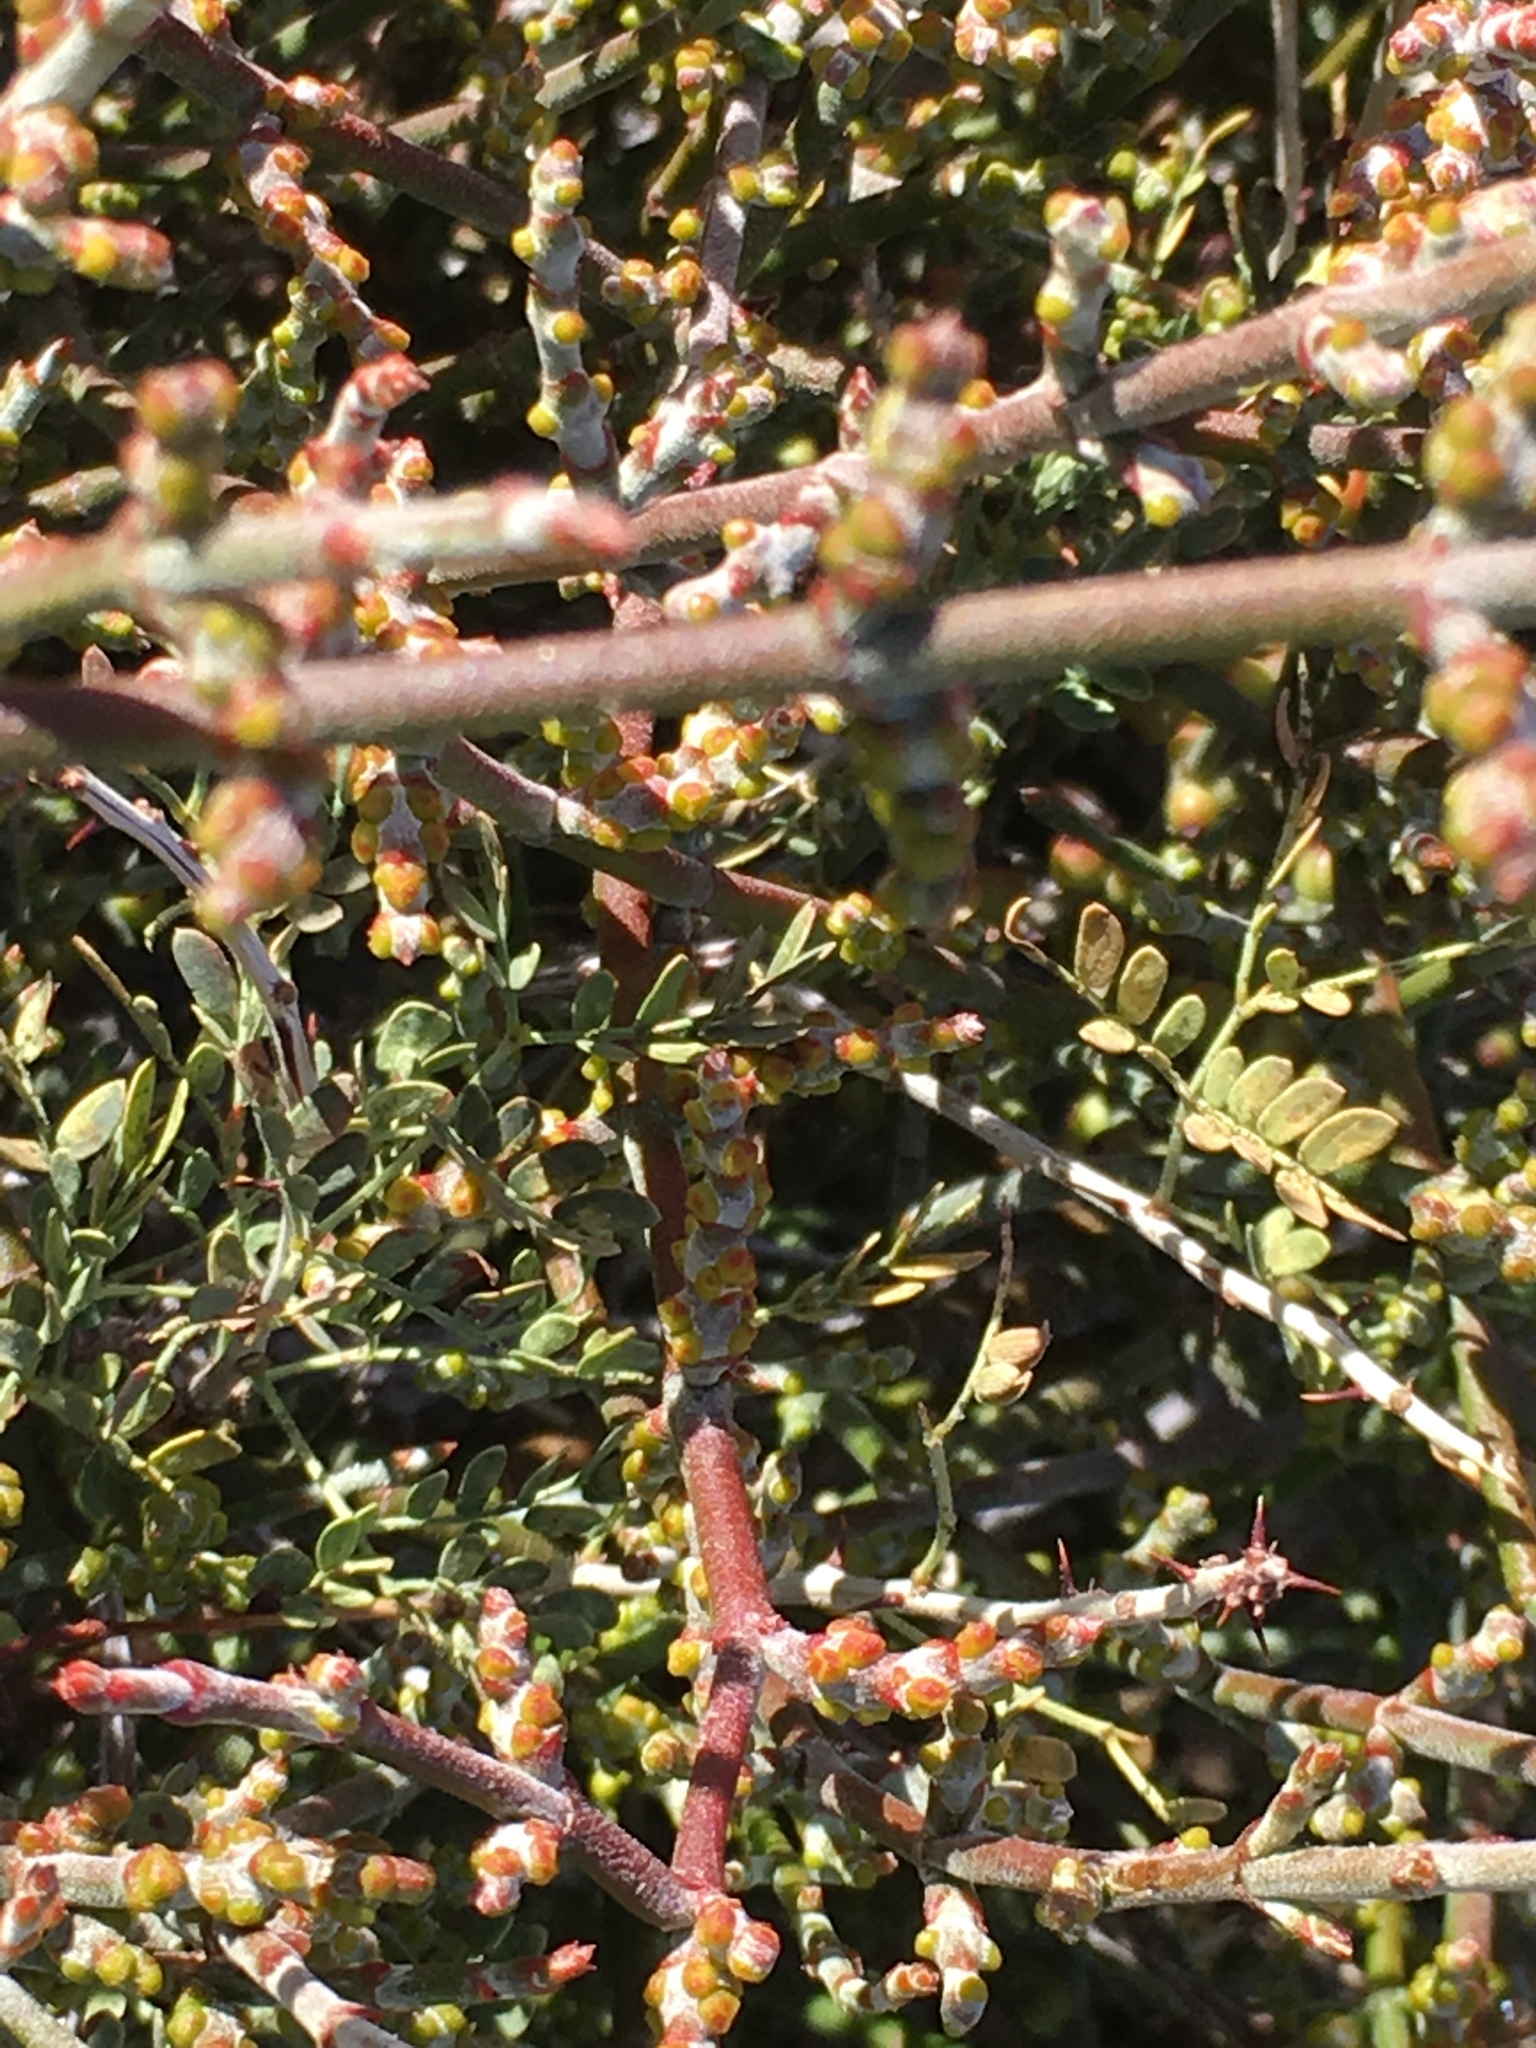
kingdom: Plantae
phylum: Tracheophyta
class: Magnoliopsida
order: Santalales
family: Viscaceae
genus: Phoradendron
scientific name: Phoradendron californicum
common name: Acacia mistletoe
